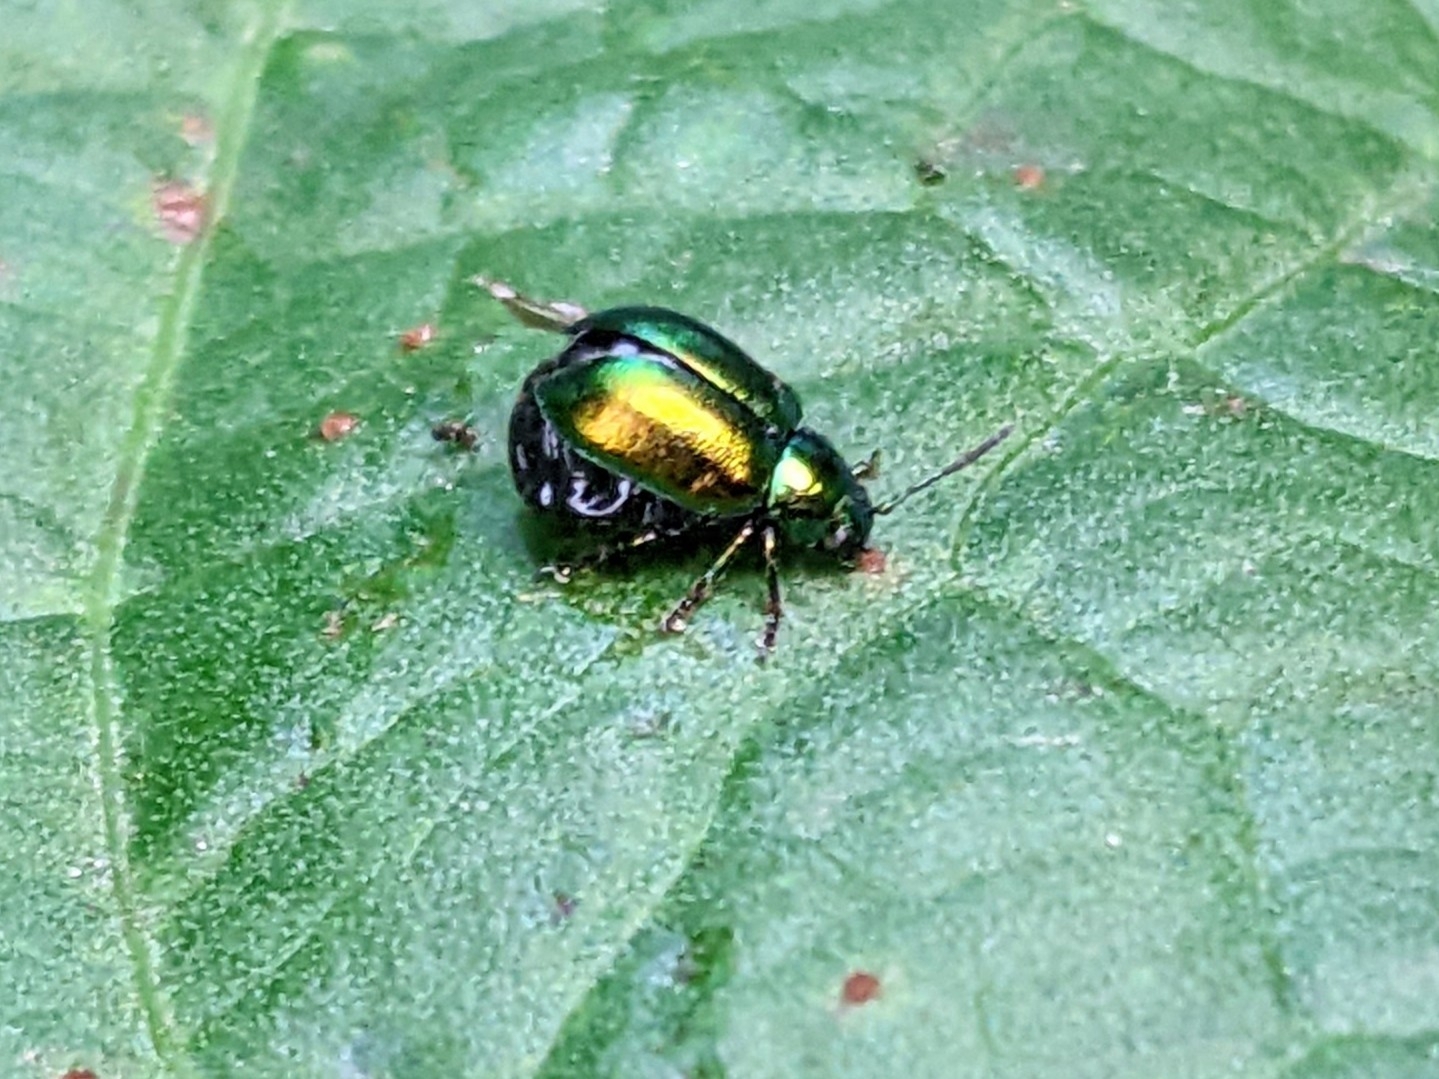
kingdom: Animalia
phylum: Arthropoda
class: Insecta
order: Coleoptera
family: Chrysomelidae
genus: Gastrophysa
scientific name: Gastrophysa viridula
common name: Green dock beetle
